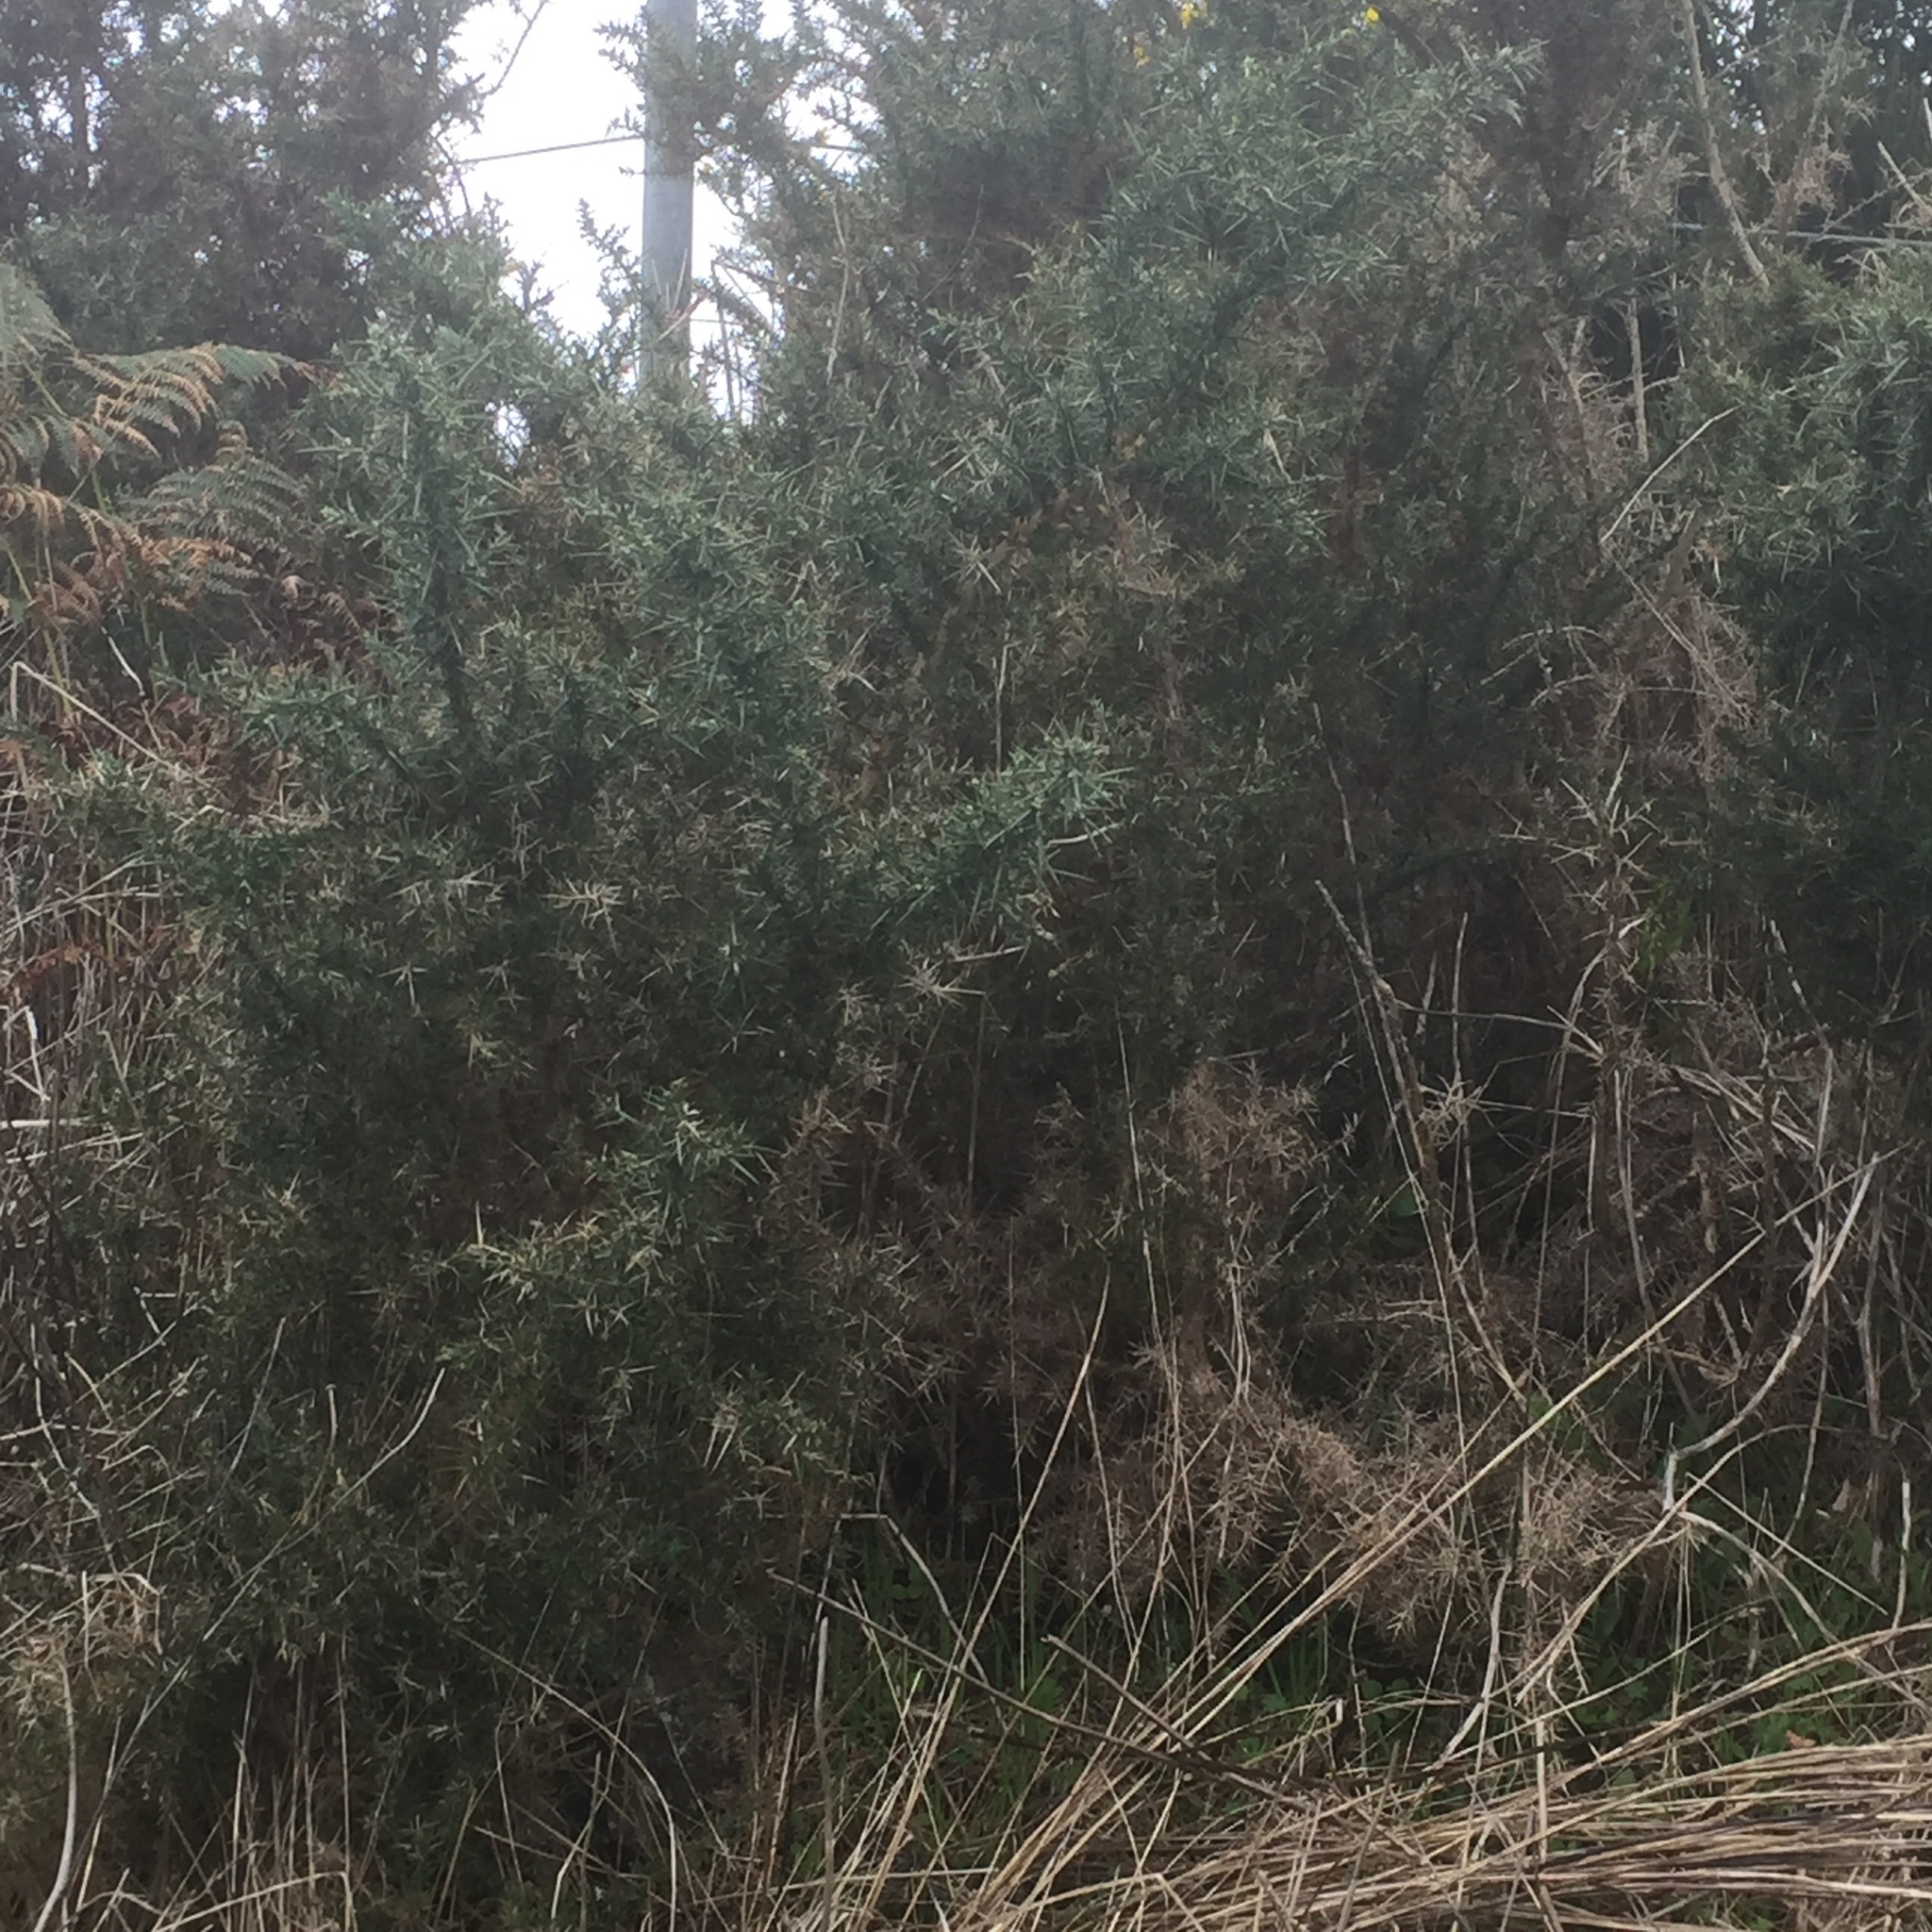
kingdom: Plantae
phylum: Tracheophyta
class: Magnoliopsida
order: Fabales
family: Fabaceae
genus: Ulex
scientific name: Ulex europaeus
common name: Common gorse
